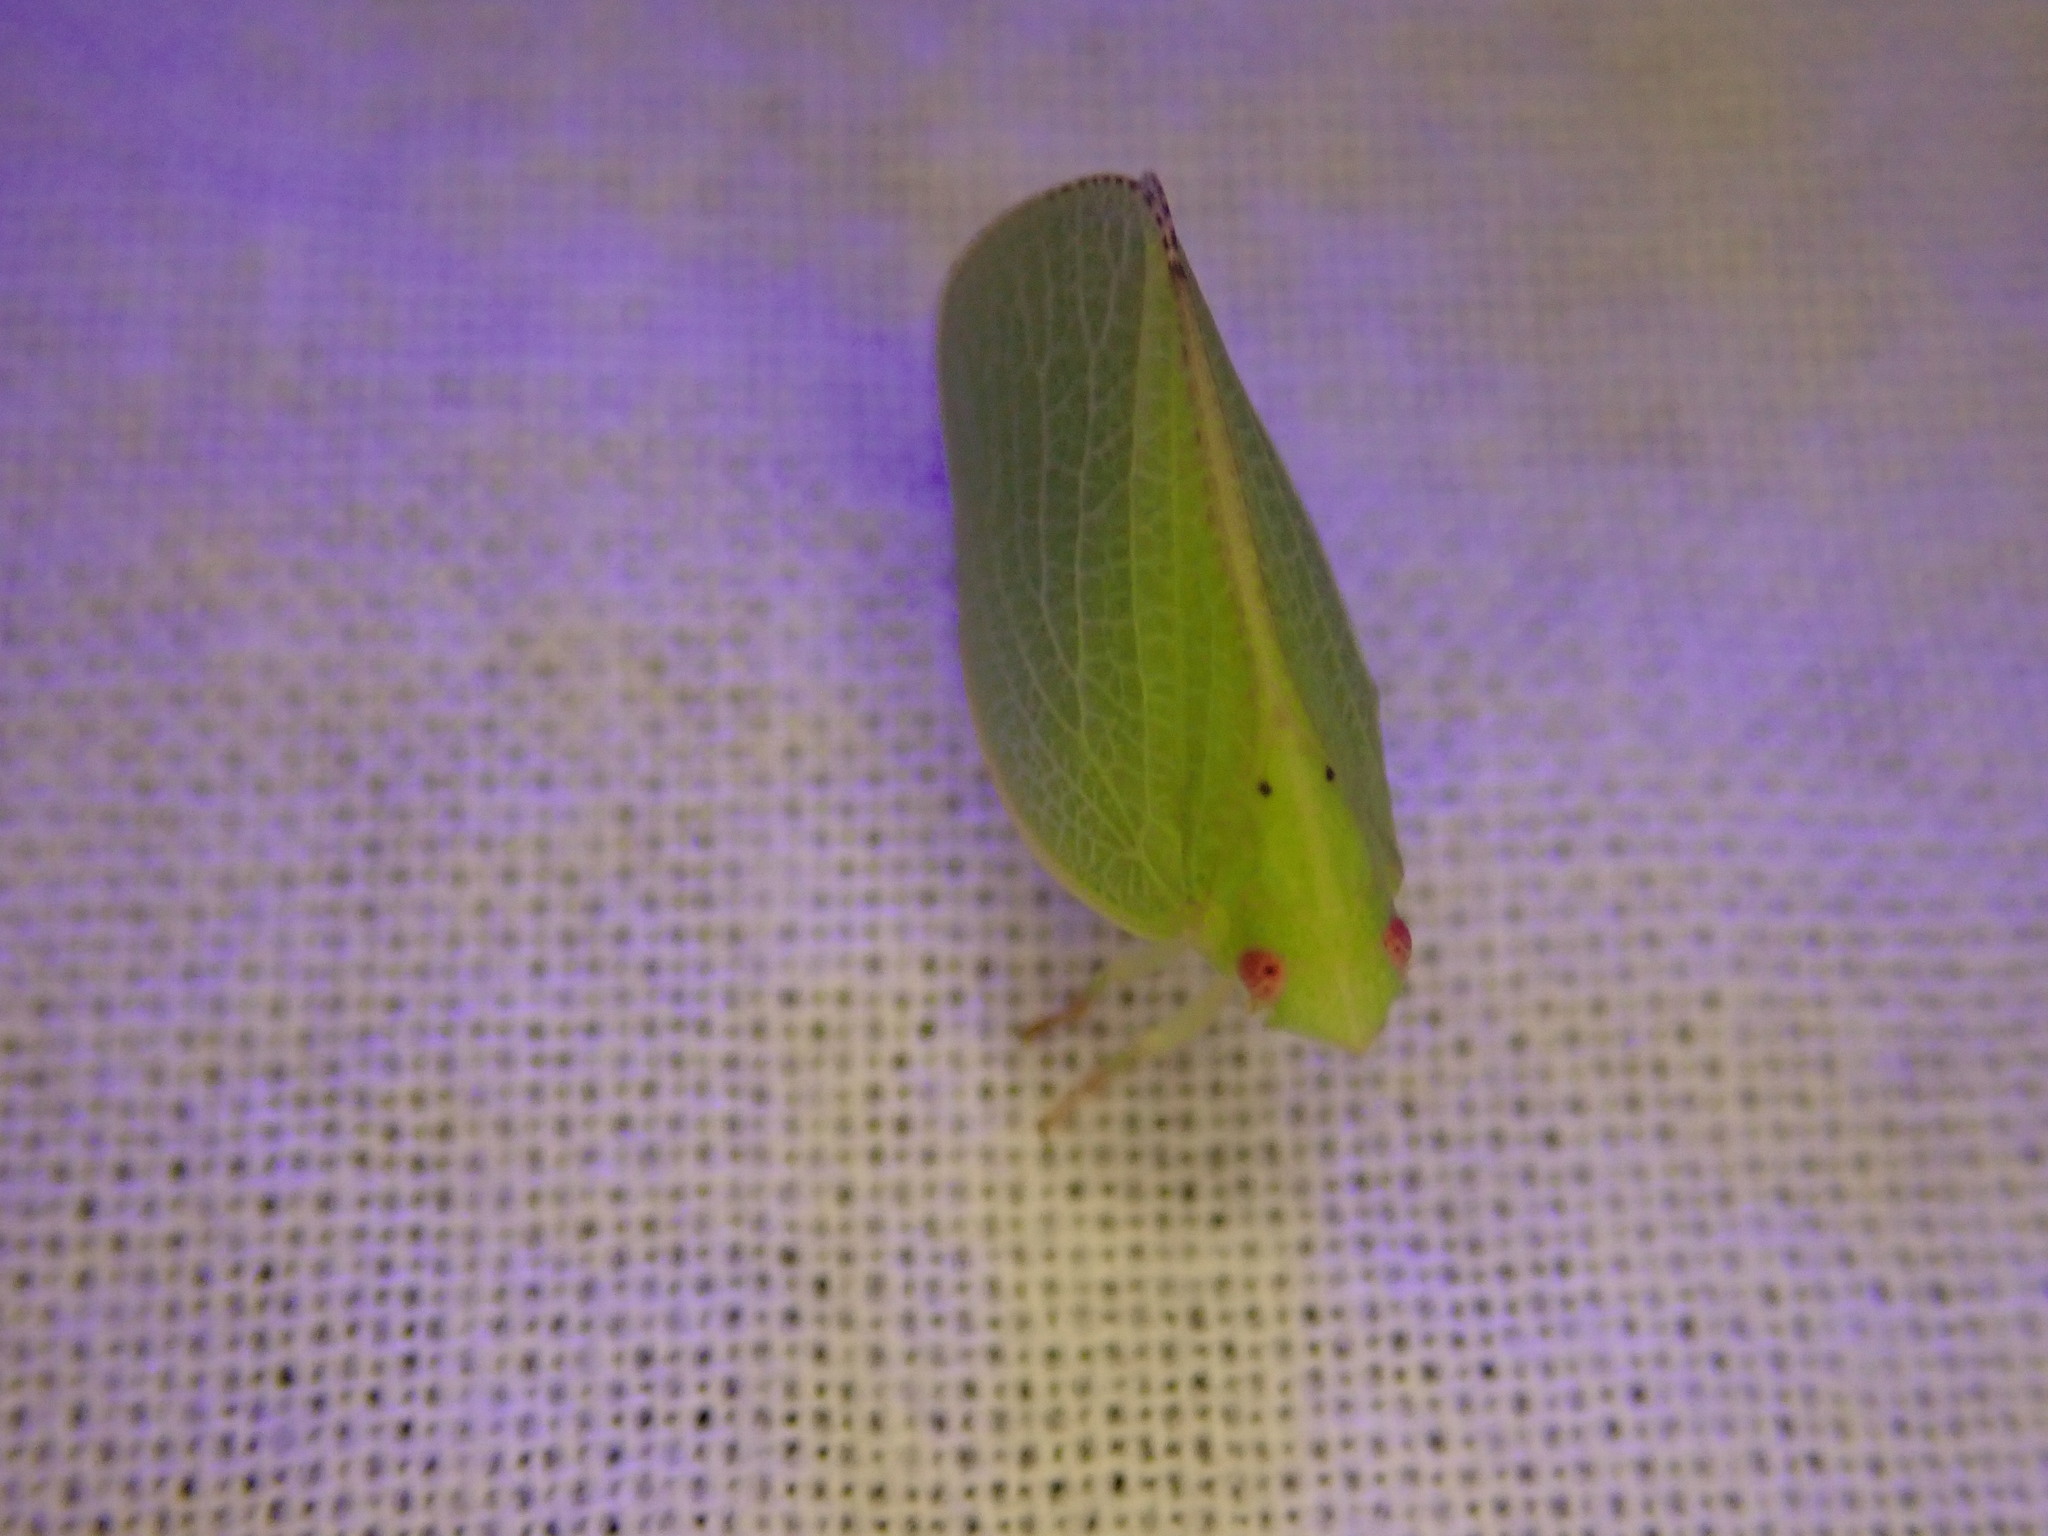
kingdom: Animalia
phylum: Arthropoda
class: Insecta
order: Hemiptera
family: Acanaloniidae
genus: Acanalonia
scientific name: Acanalonia conica
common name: Green cone-headed planthopper
